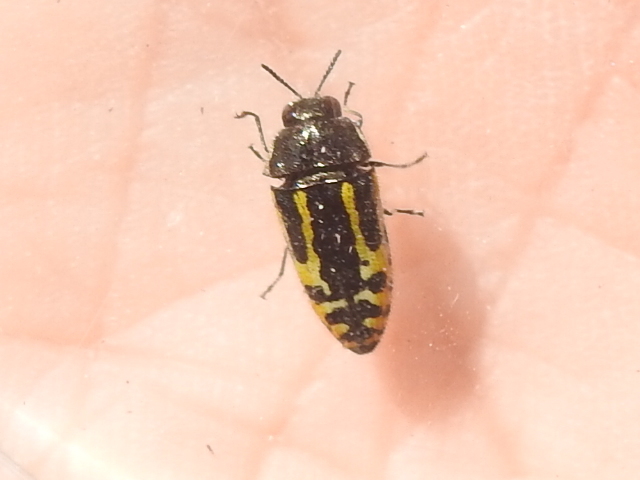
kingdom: Animalia
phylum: Arthropoda
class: Insecta
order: Coleoptera
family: Buprestidae
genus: Acmaeodera
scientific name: Acmaeodera scalaris
